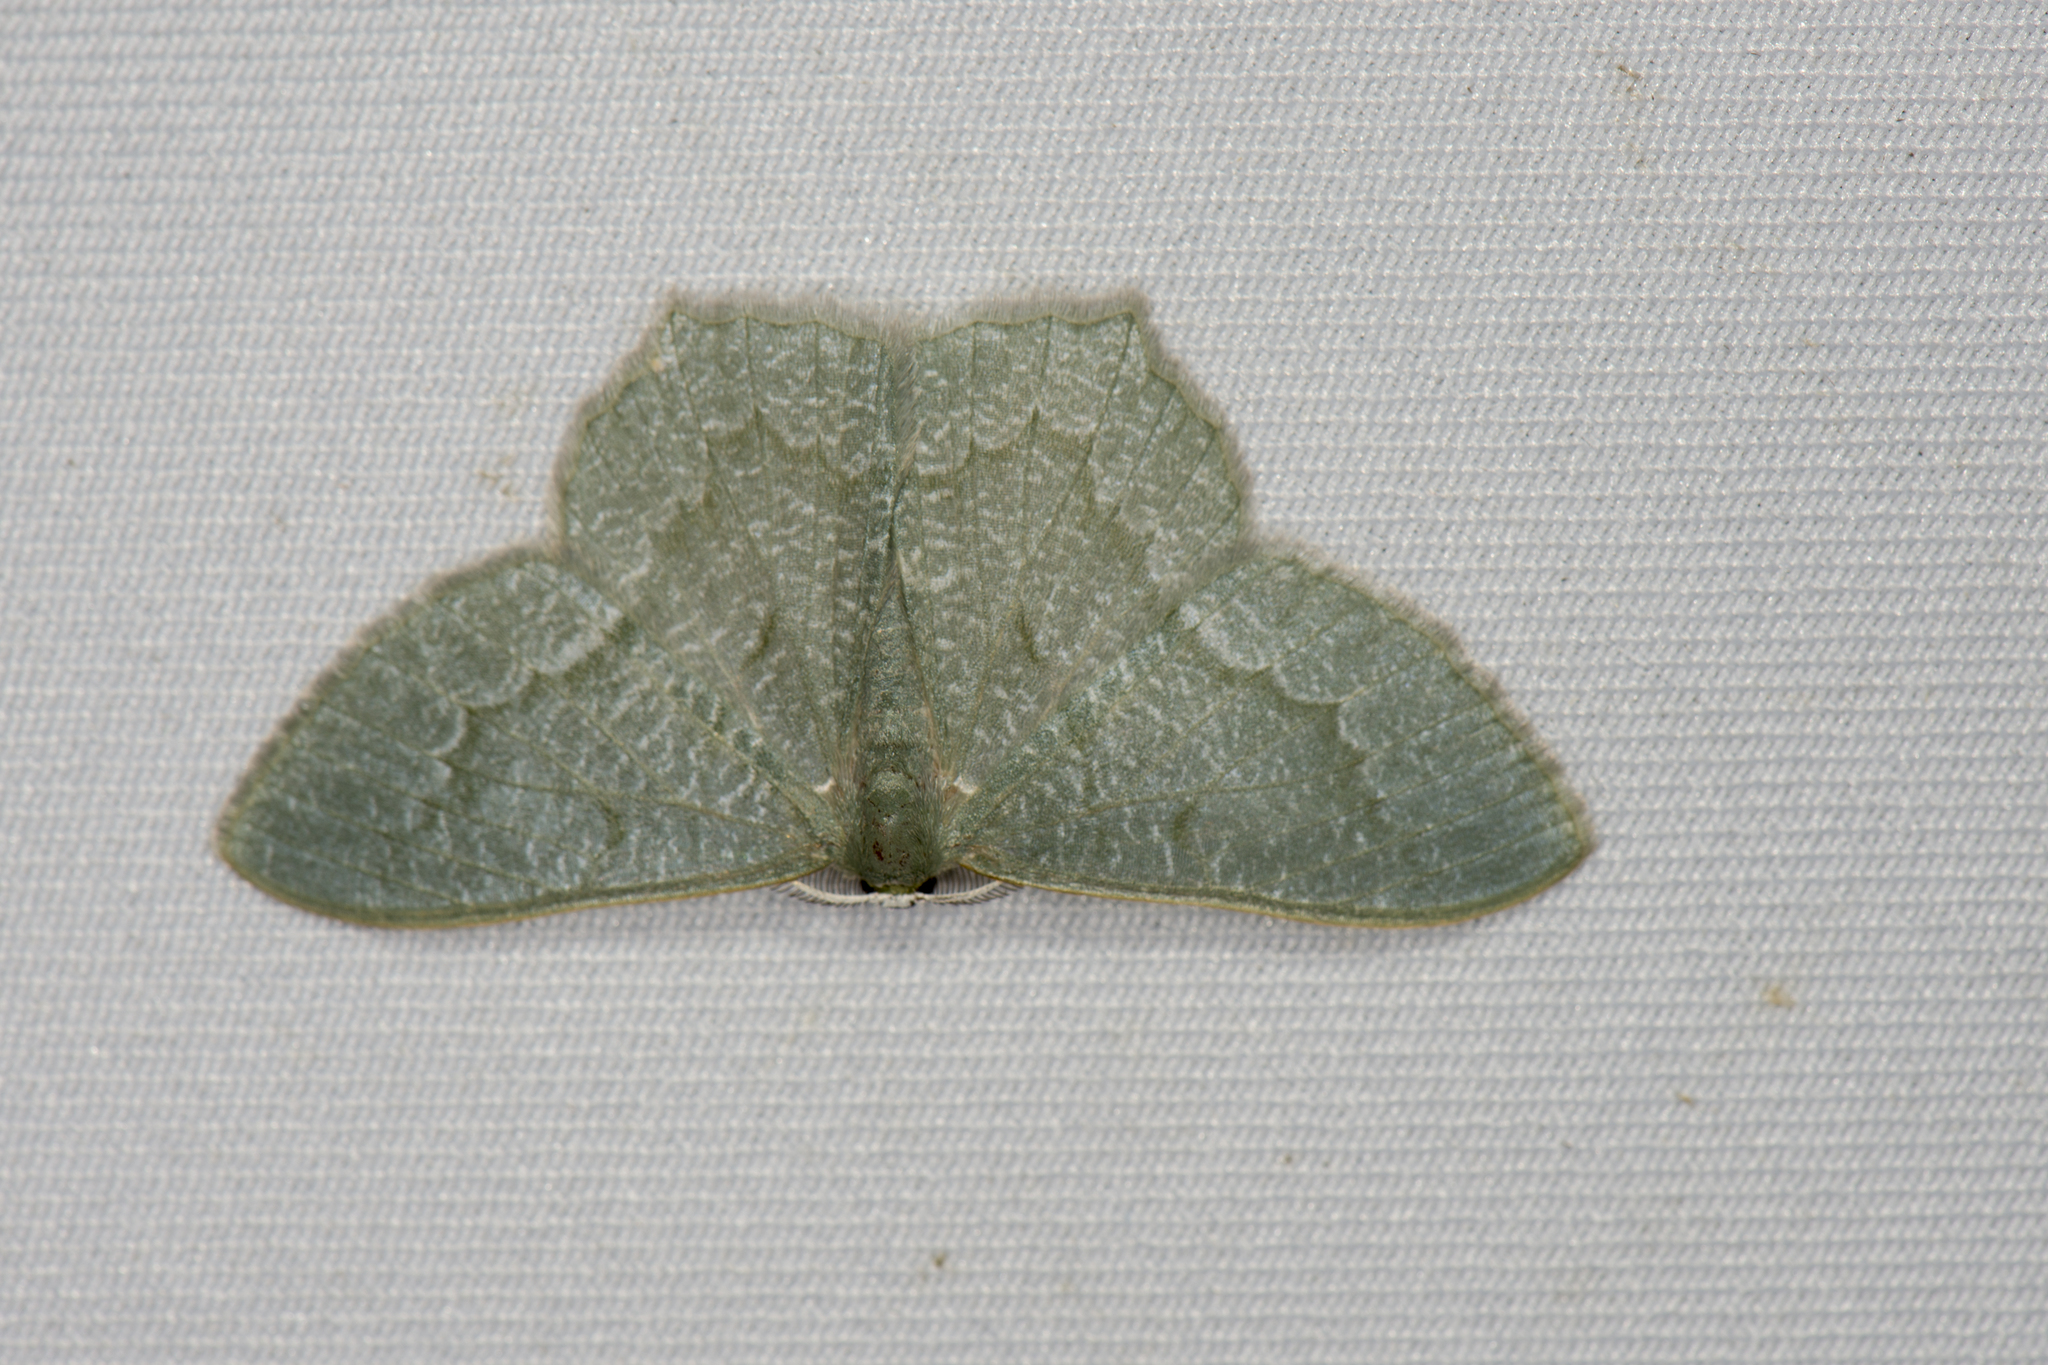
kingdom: Animalia
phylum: Arthropoda
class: Insecta
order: Lepidoptera
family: Geometridae
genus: Jodis
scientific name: Jodis rantaizanensis
